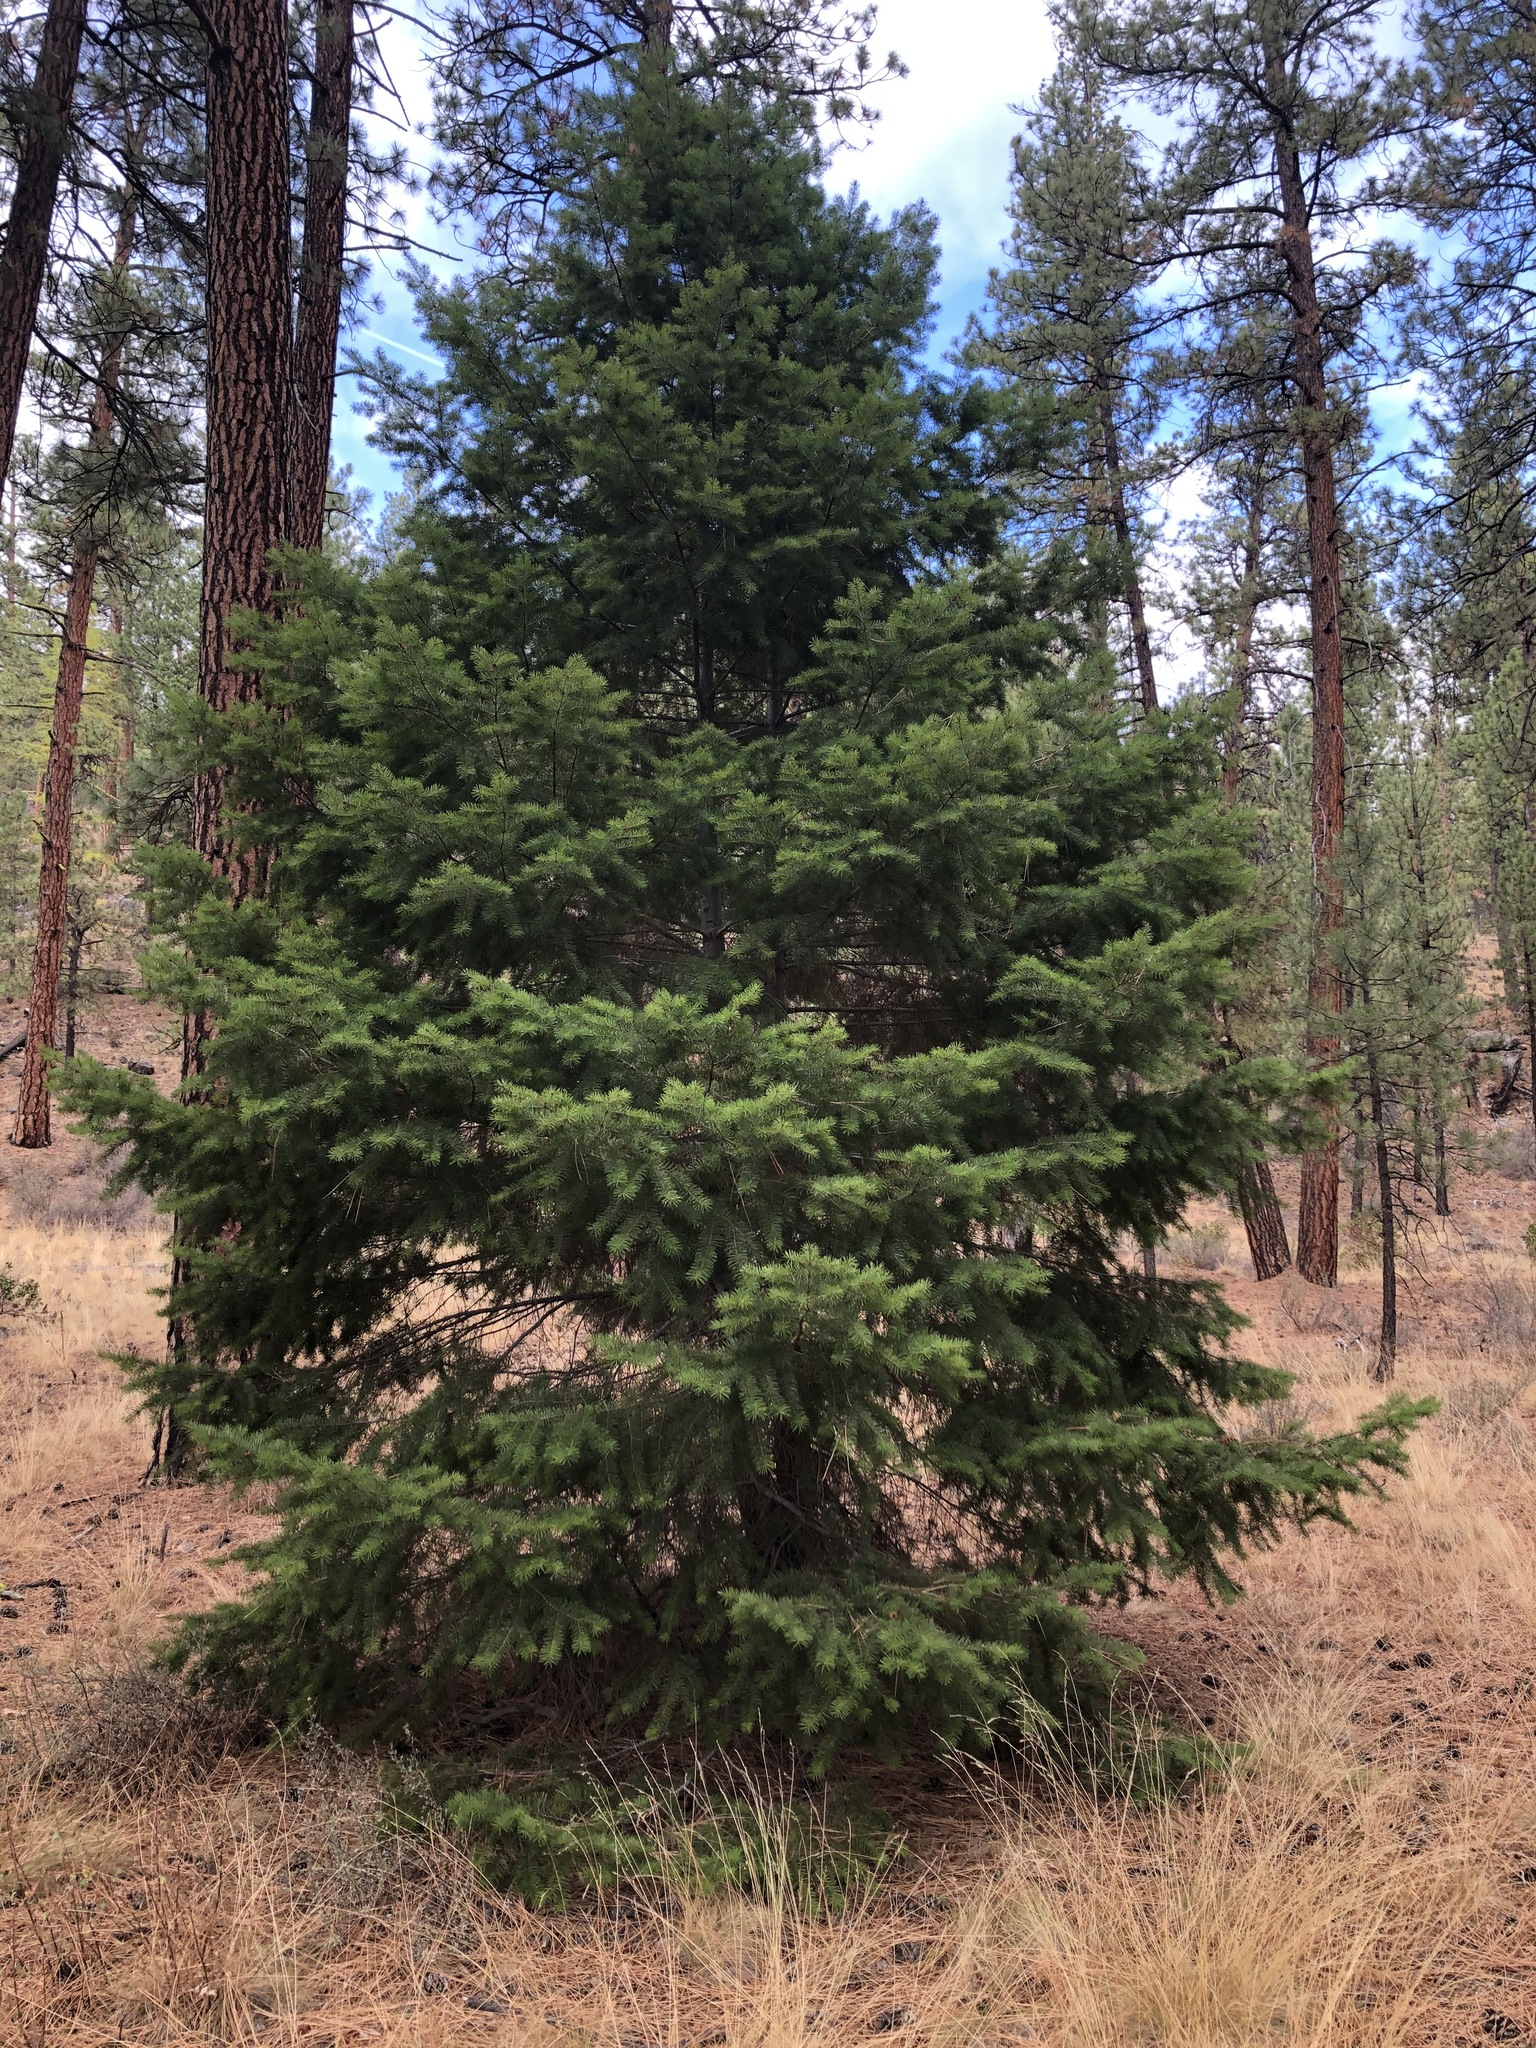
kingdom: Plantae
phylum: Tracheophyta
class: Pinopsida
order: Pinales
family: Pinaceae
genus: Pseudotsuga
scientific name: Pseudotsuga menziesii
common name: Douglas fir
